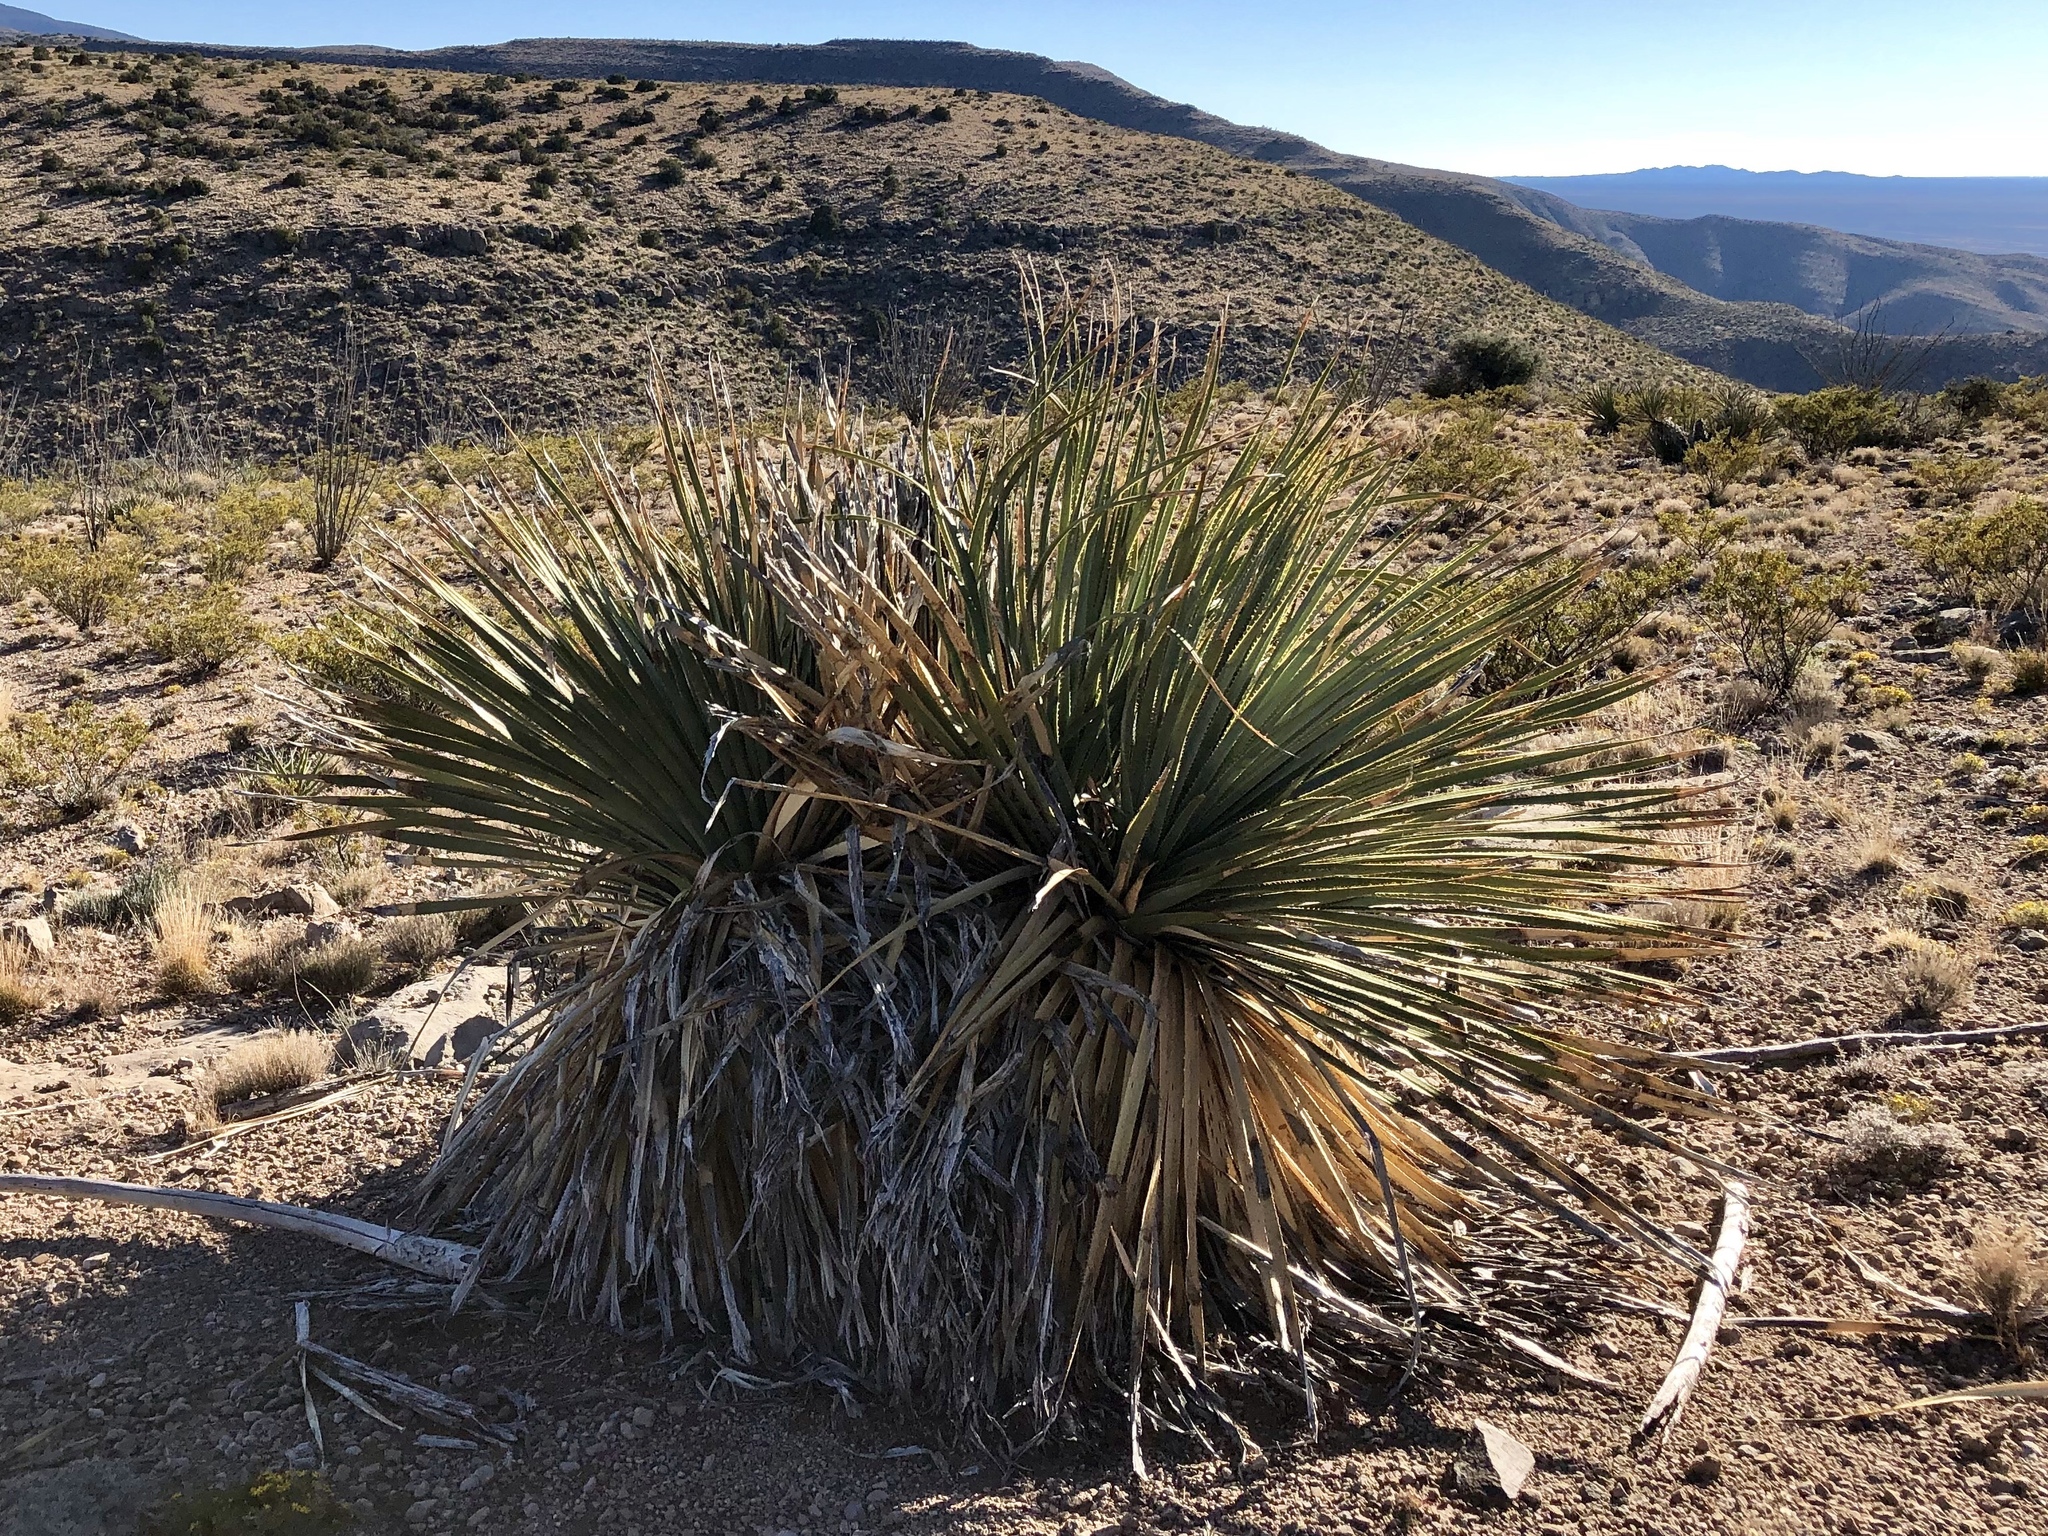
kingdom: Plantae
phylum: Tracheophyta
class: Liliopsida
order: Asparagales
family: Asparagaceae
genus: Dasylirion
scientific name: Dasylirion wheeleri
